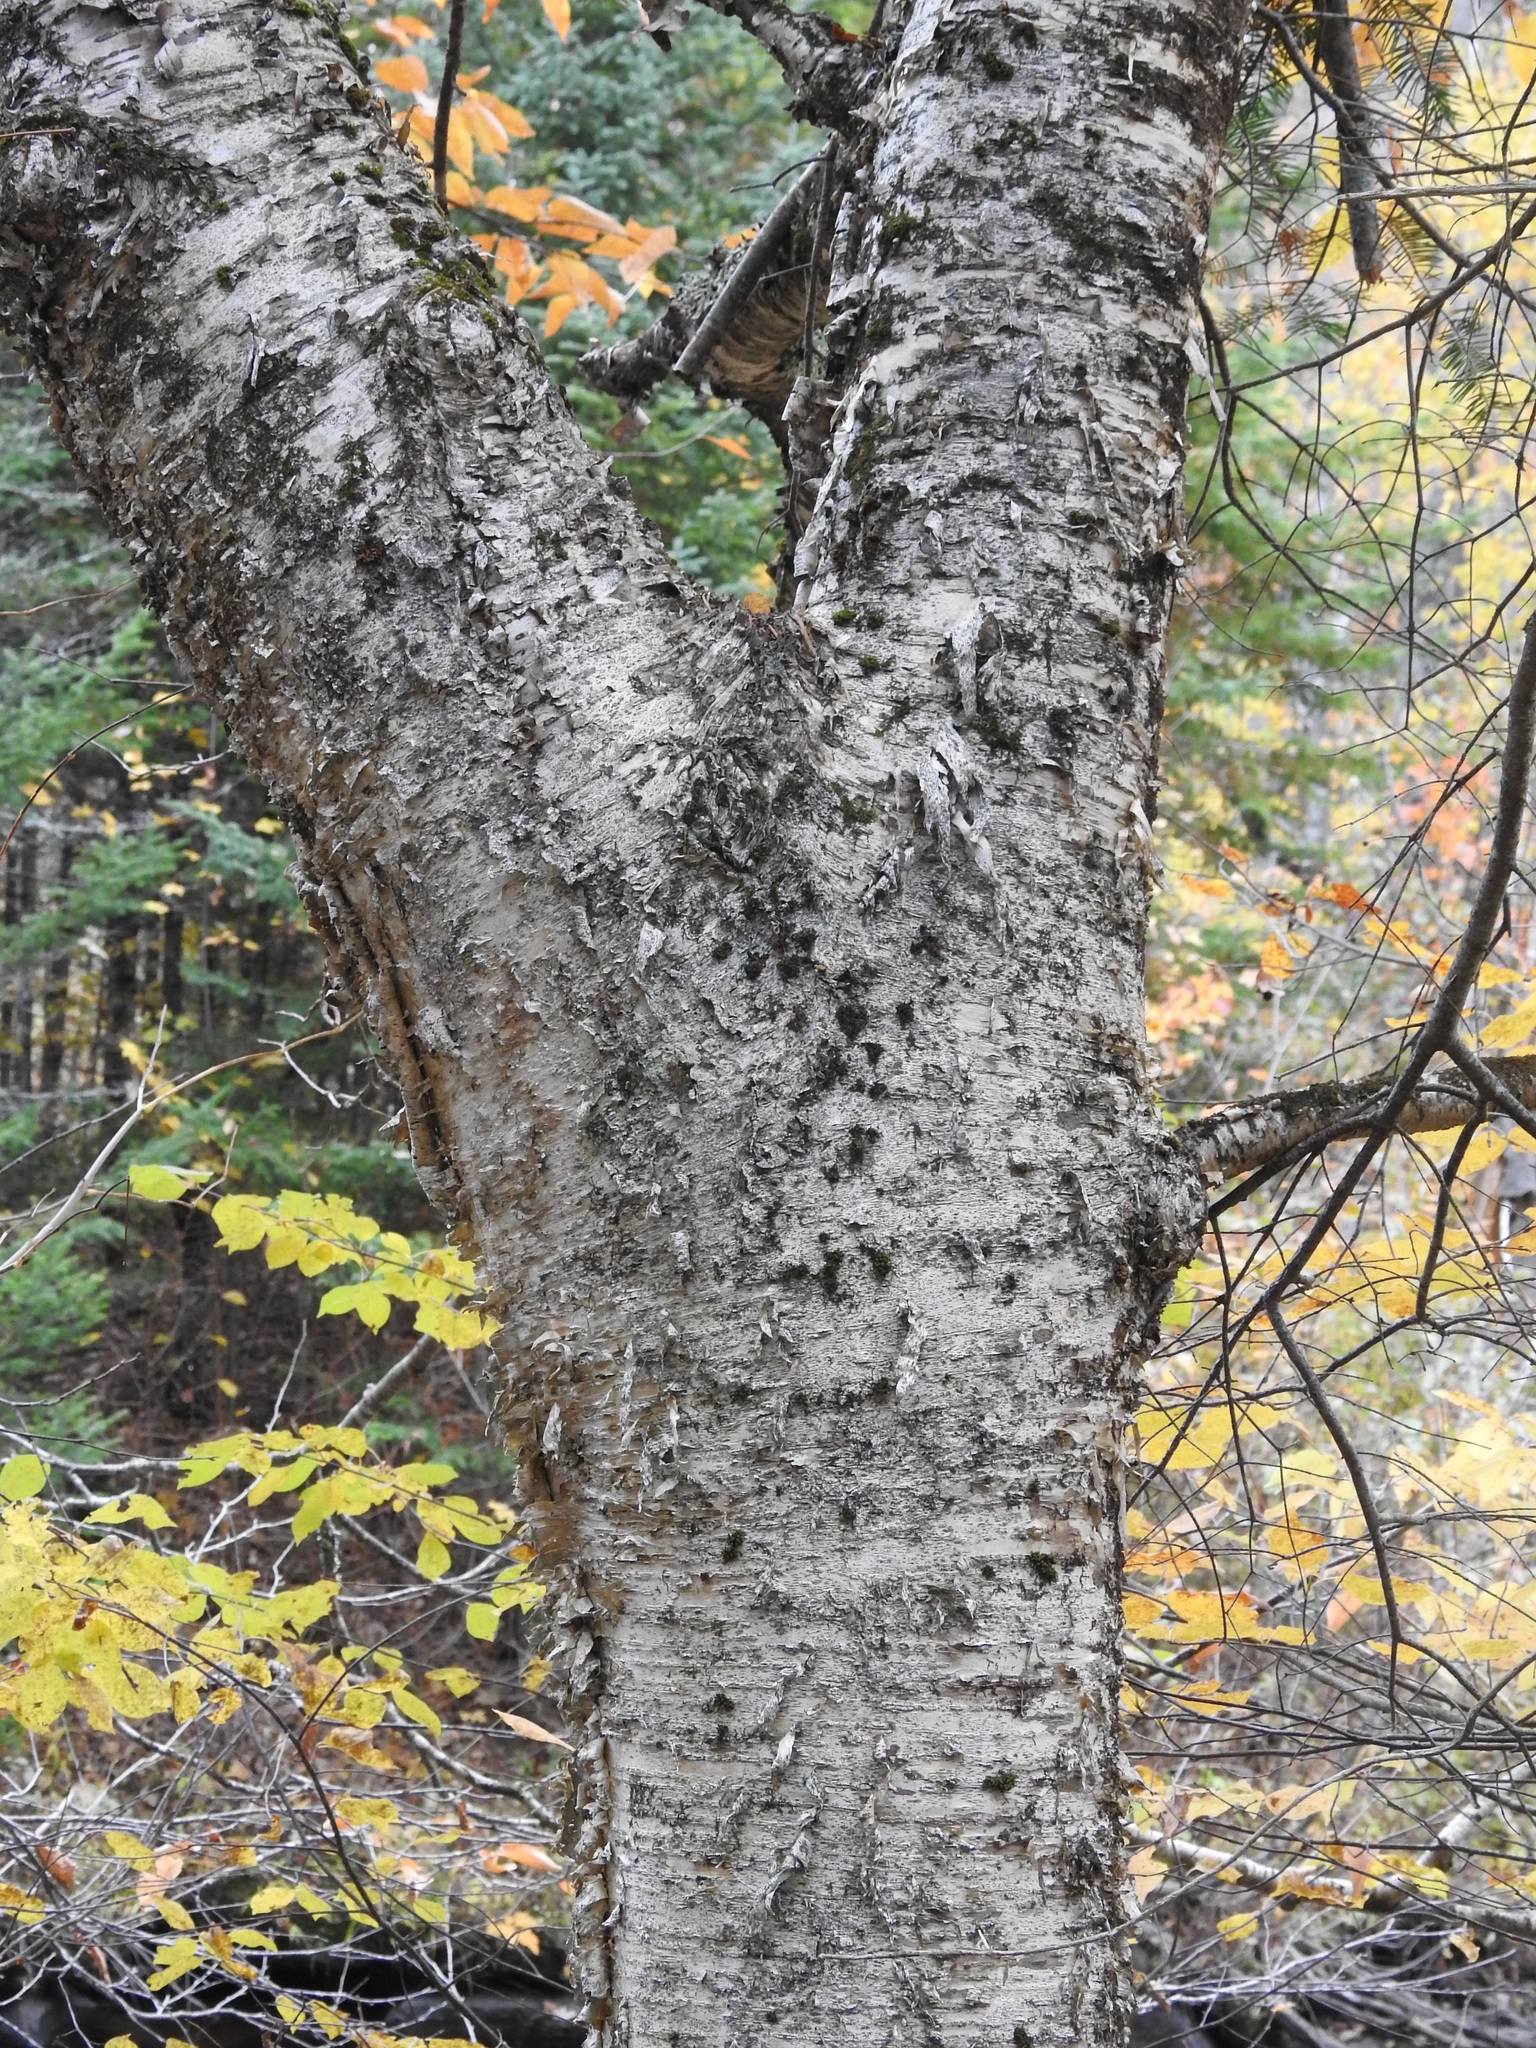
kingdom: Plantae
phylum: Tracheophyta
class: Magnoliopsida
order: Fagales
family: Betulaceae
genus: Betula
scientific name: Betula alleghaniensis
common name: Yellow birch
